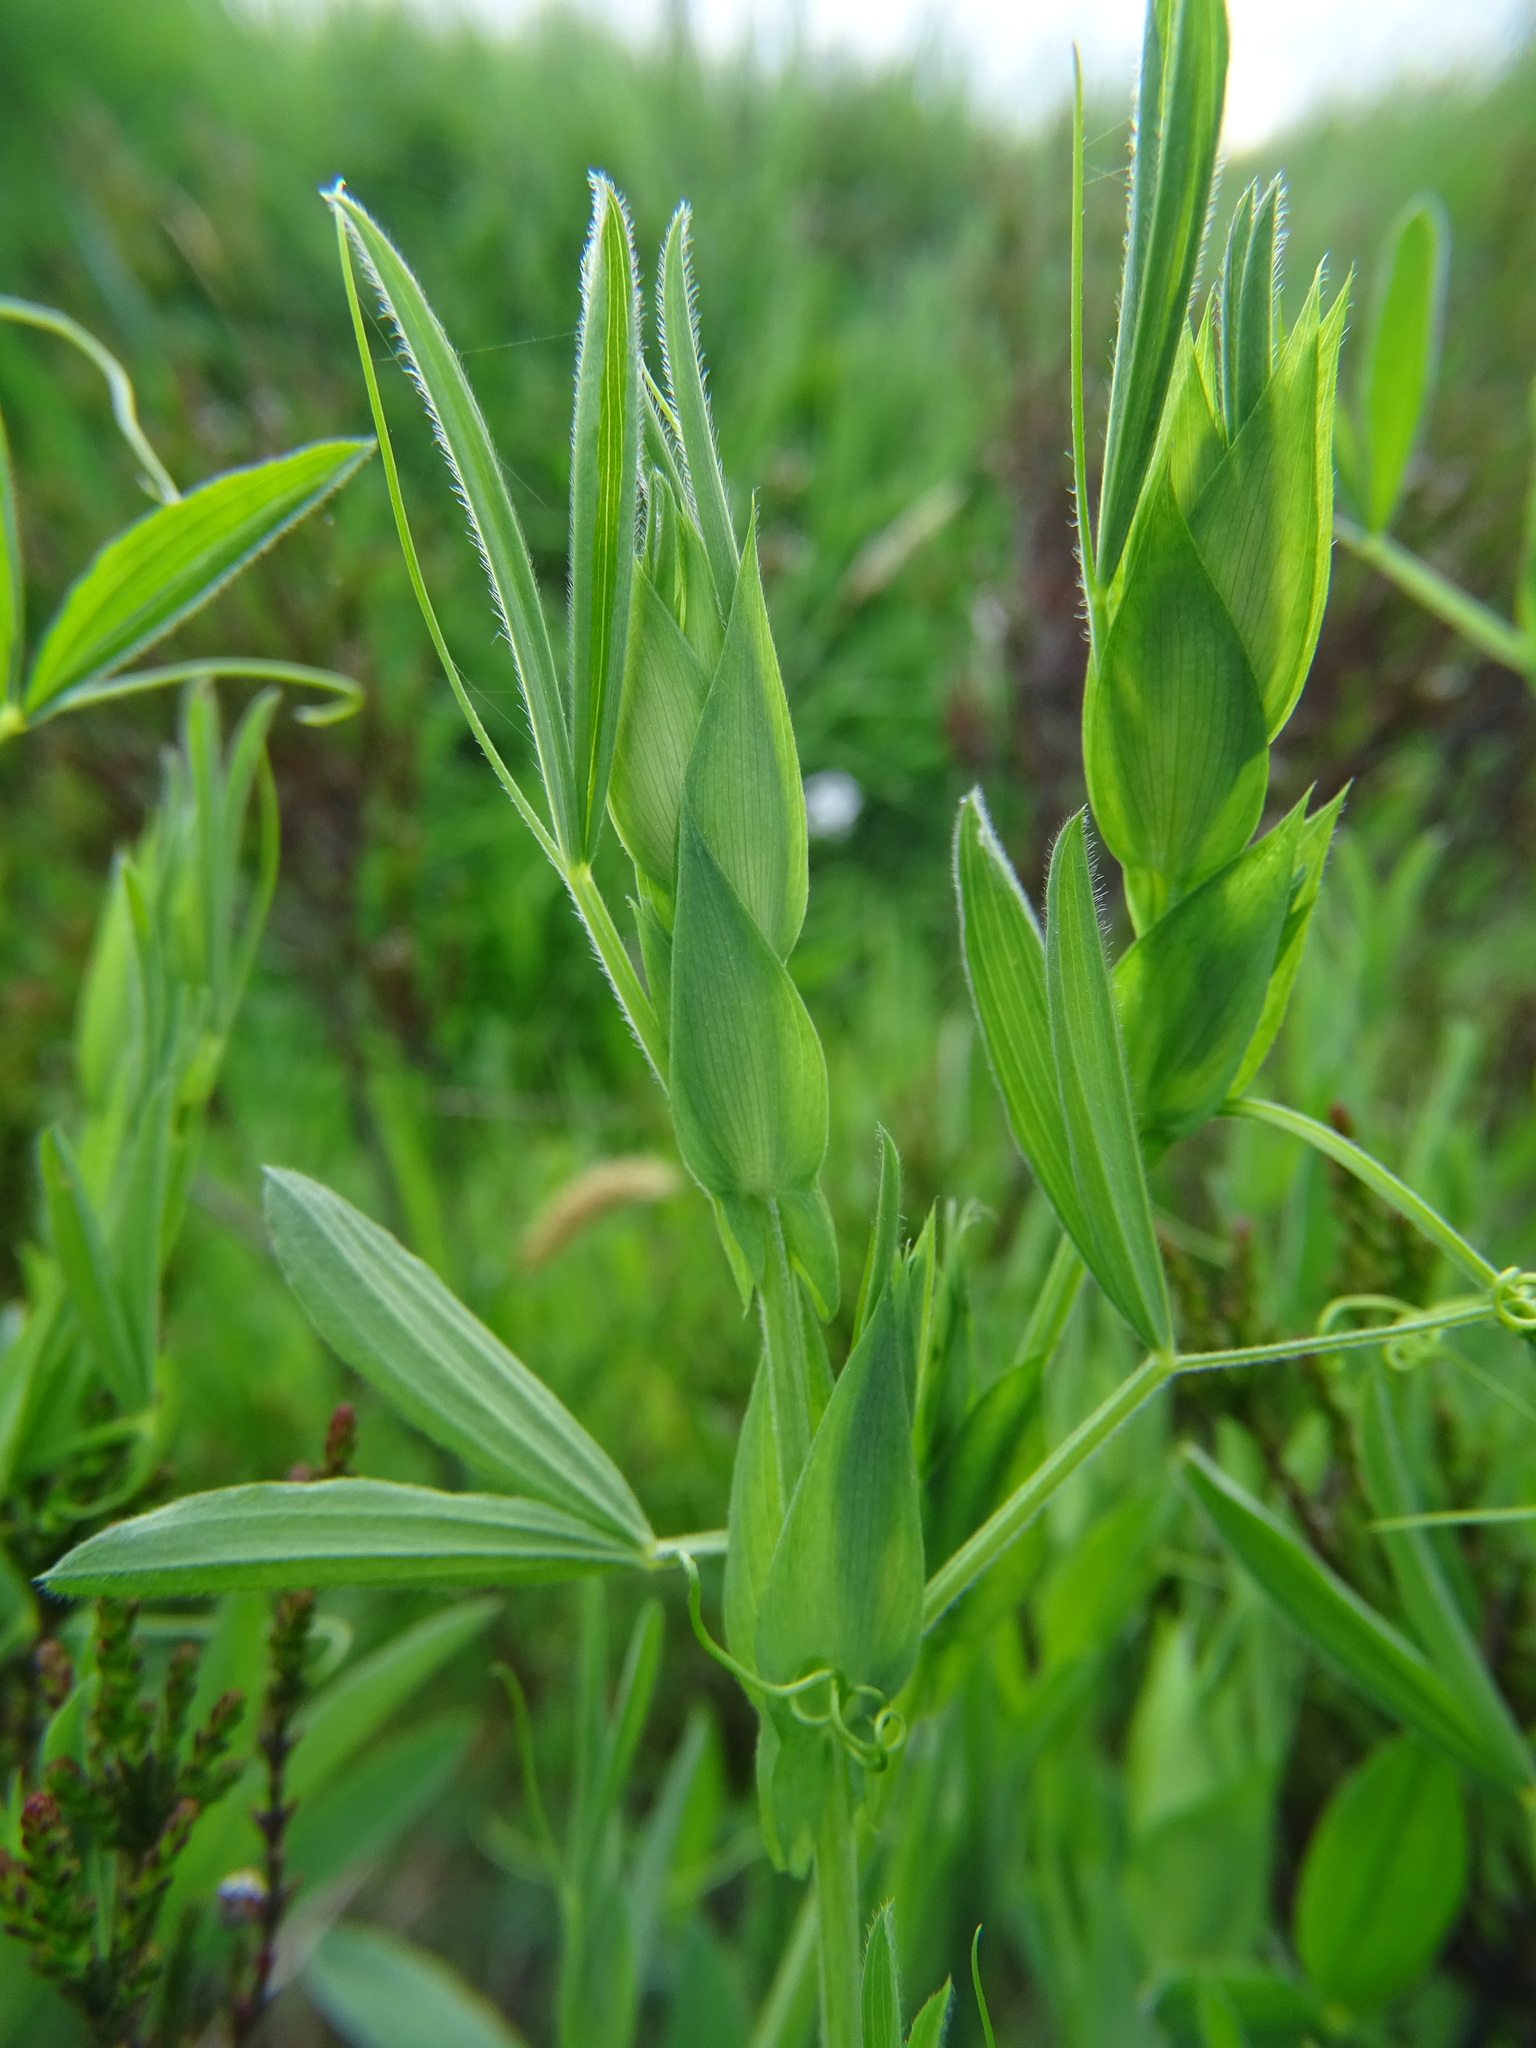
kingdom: Plantae
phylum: Tracheophyta
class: Magnoliopsida
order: Fabales
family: Fabaceae
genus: Lathyrus
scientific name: Lathyrus pratensis
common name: Meadow vetchling
